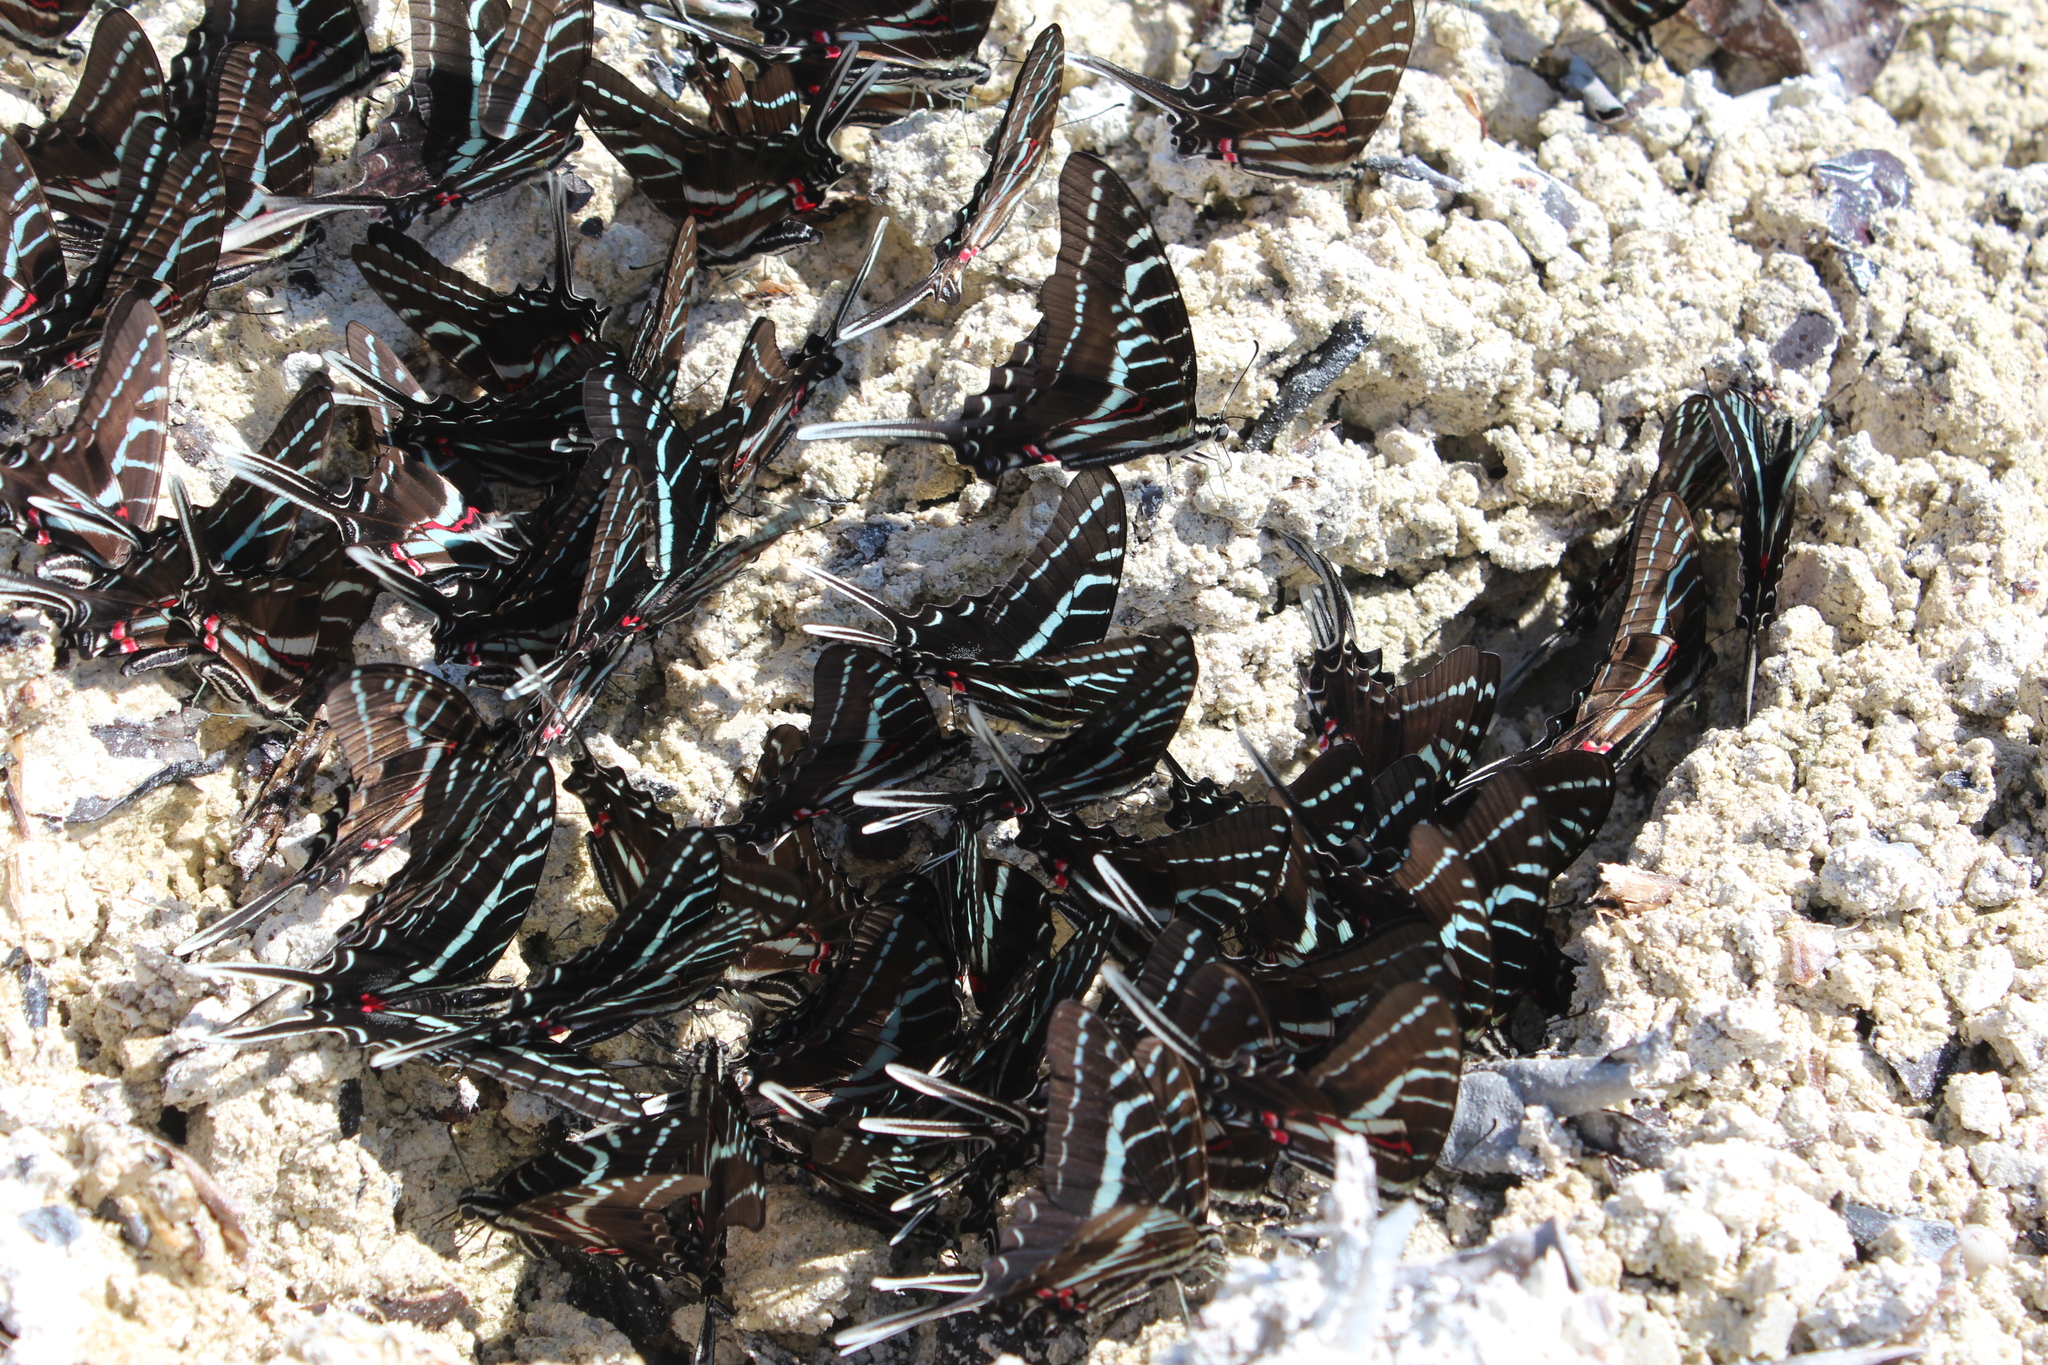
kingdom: Animalia
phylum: Arthropoda
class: Insecta
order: Lepidoptera
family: Papilionidae
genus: Protographium
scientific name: Protographium philolaus
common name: Dark zebra swallowtail
